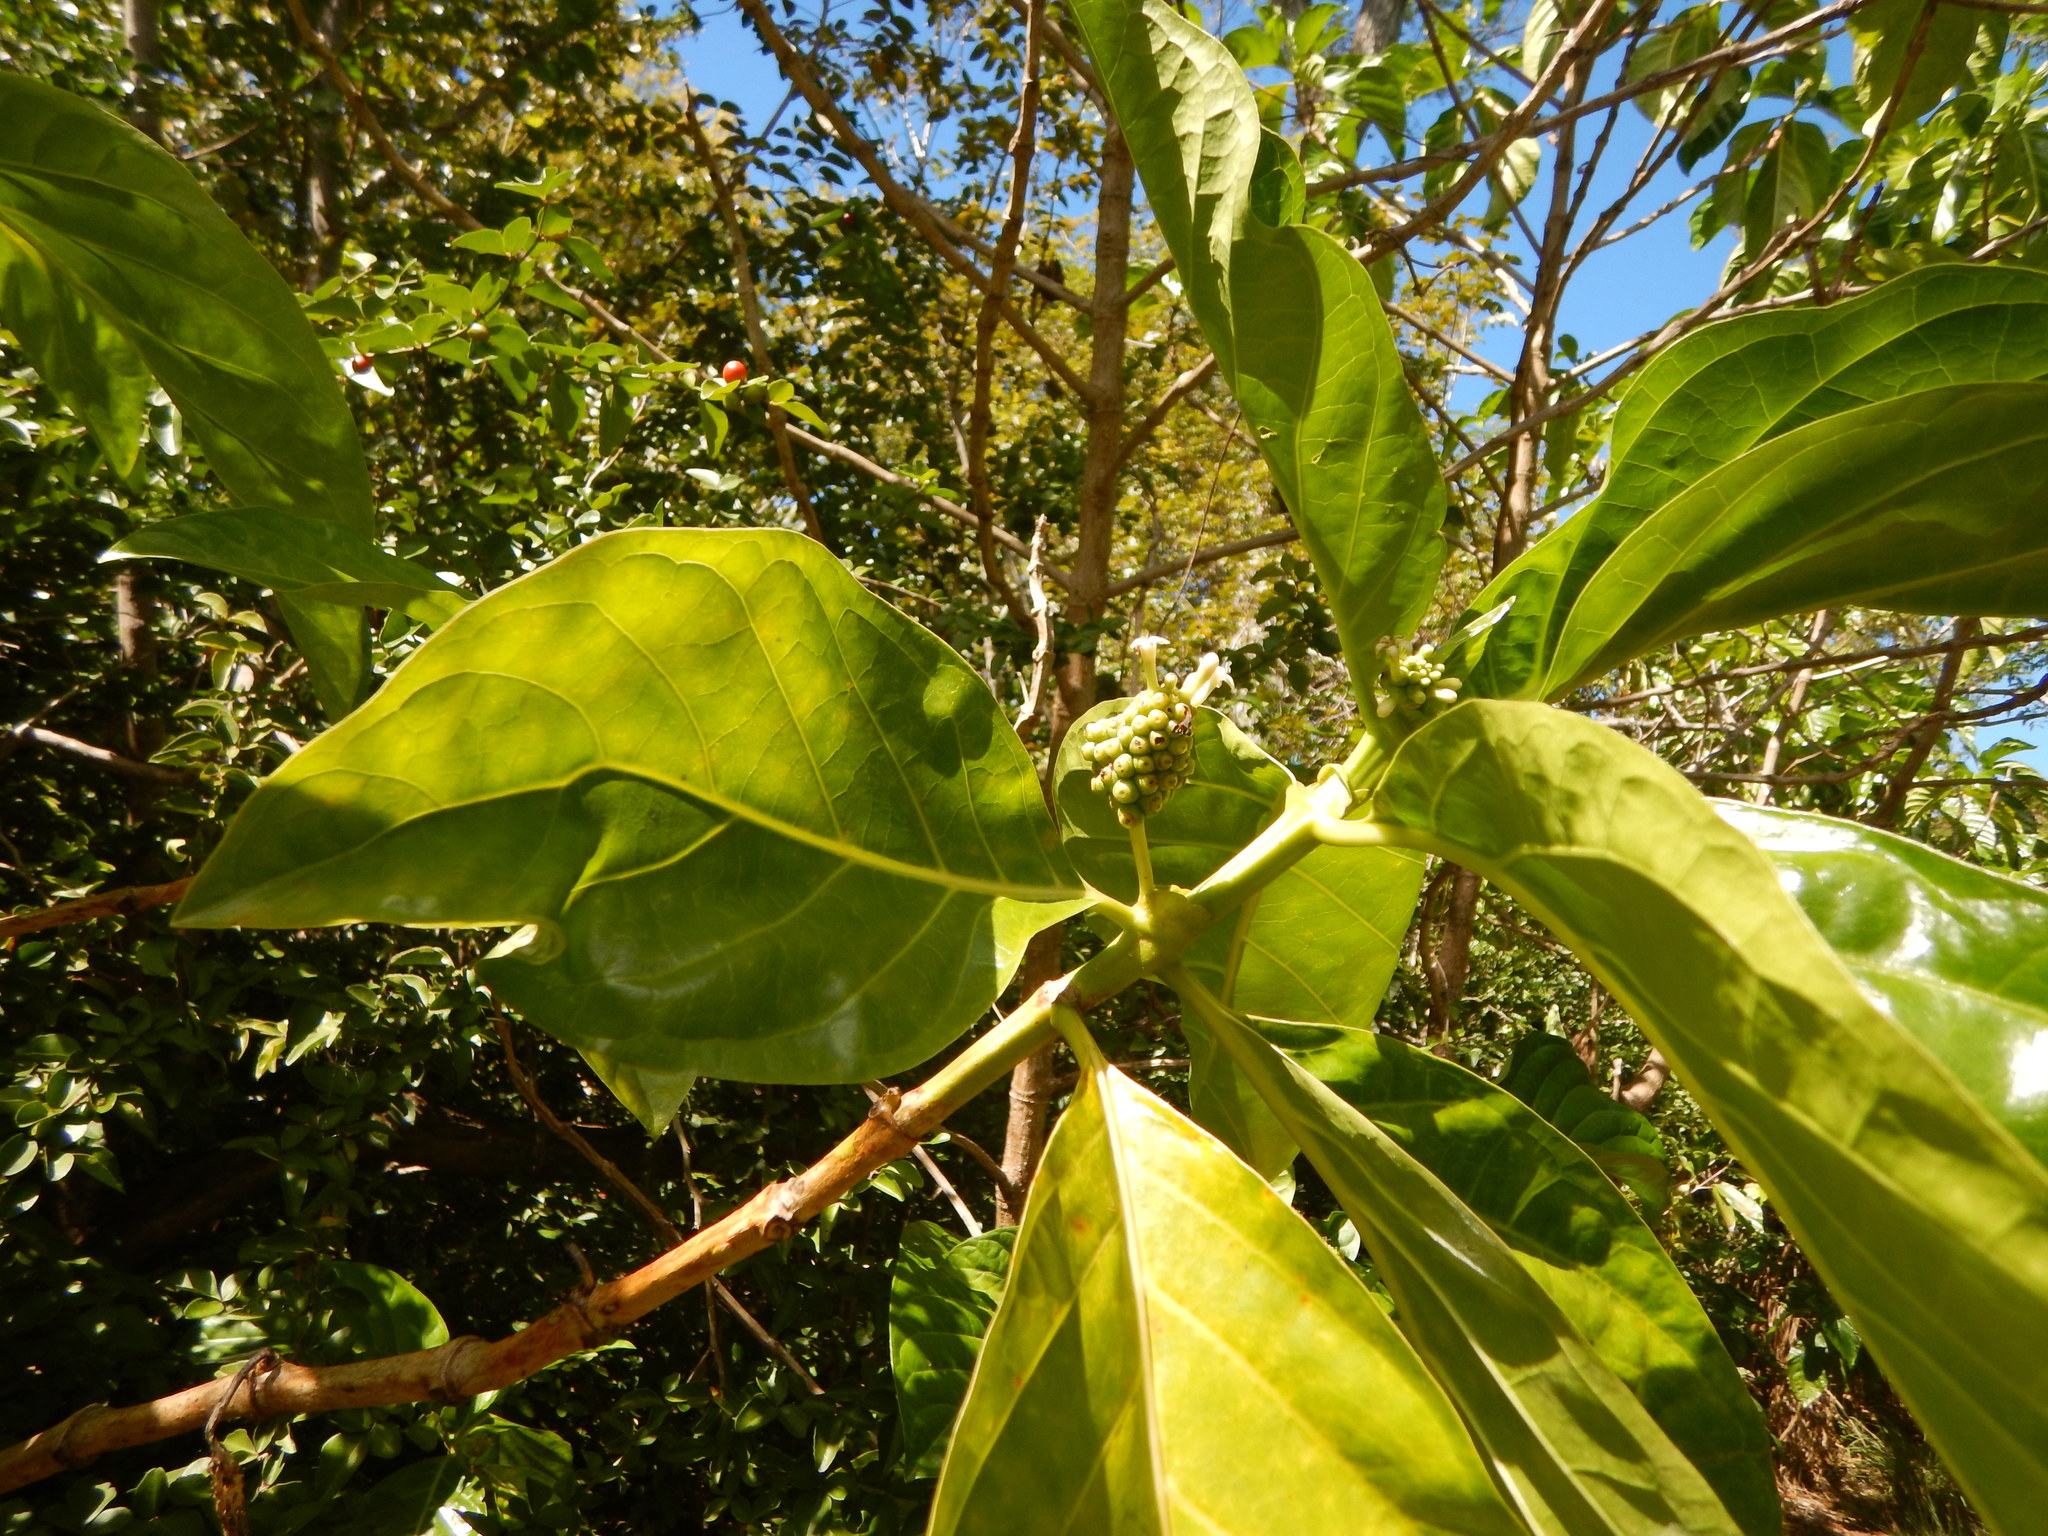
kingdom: Plantae
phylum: Tracheophyta
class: Magnoliopsida
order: Gentianales
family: Rubiaceae
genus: Morinda
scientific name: Morinda citrifolia
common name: Indian-mulberry
